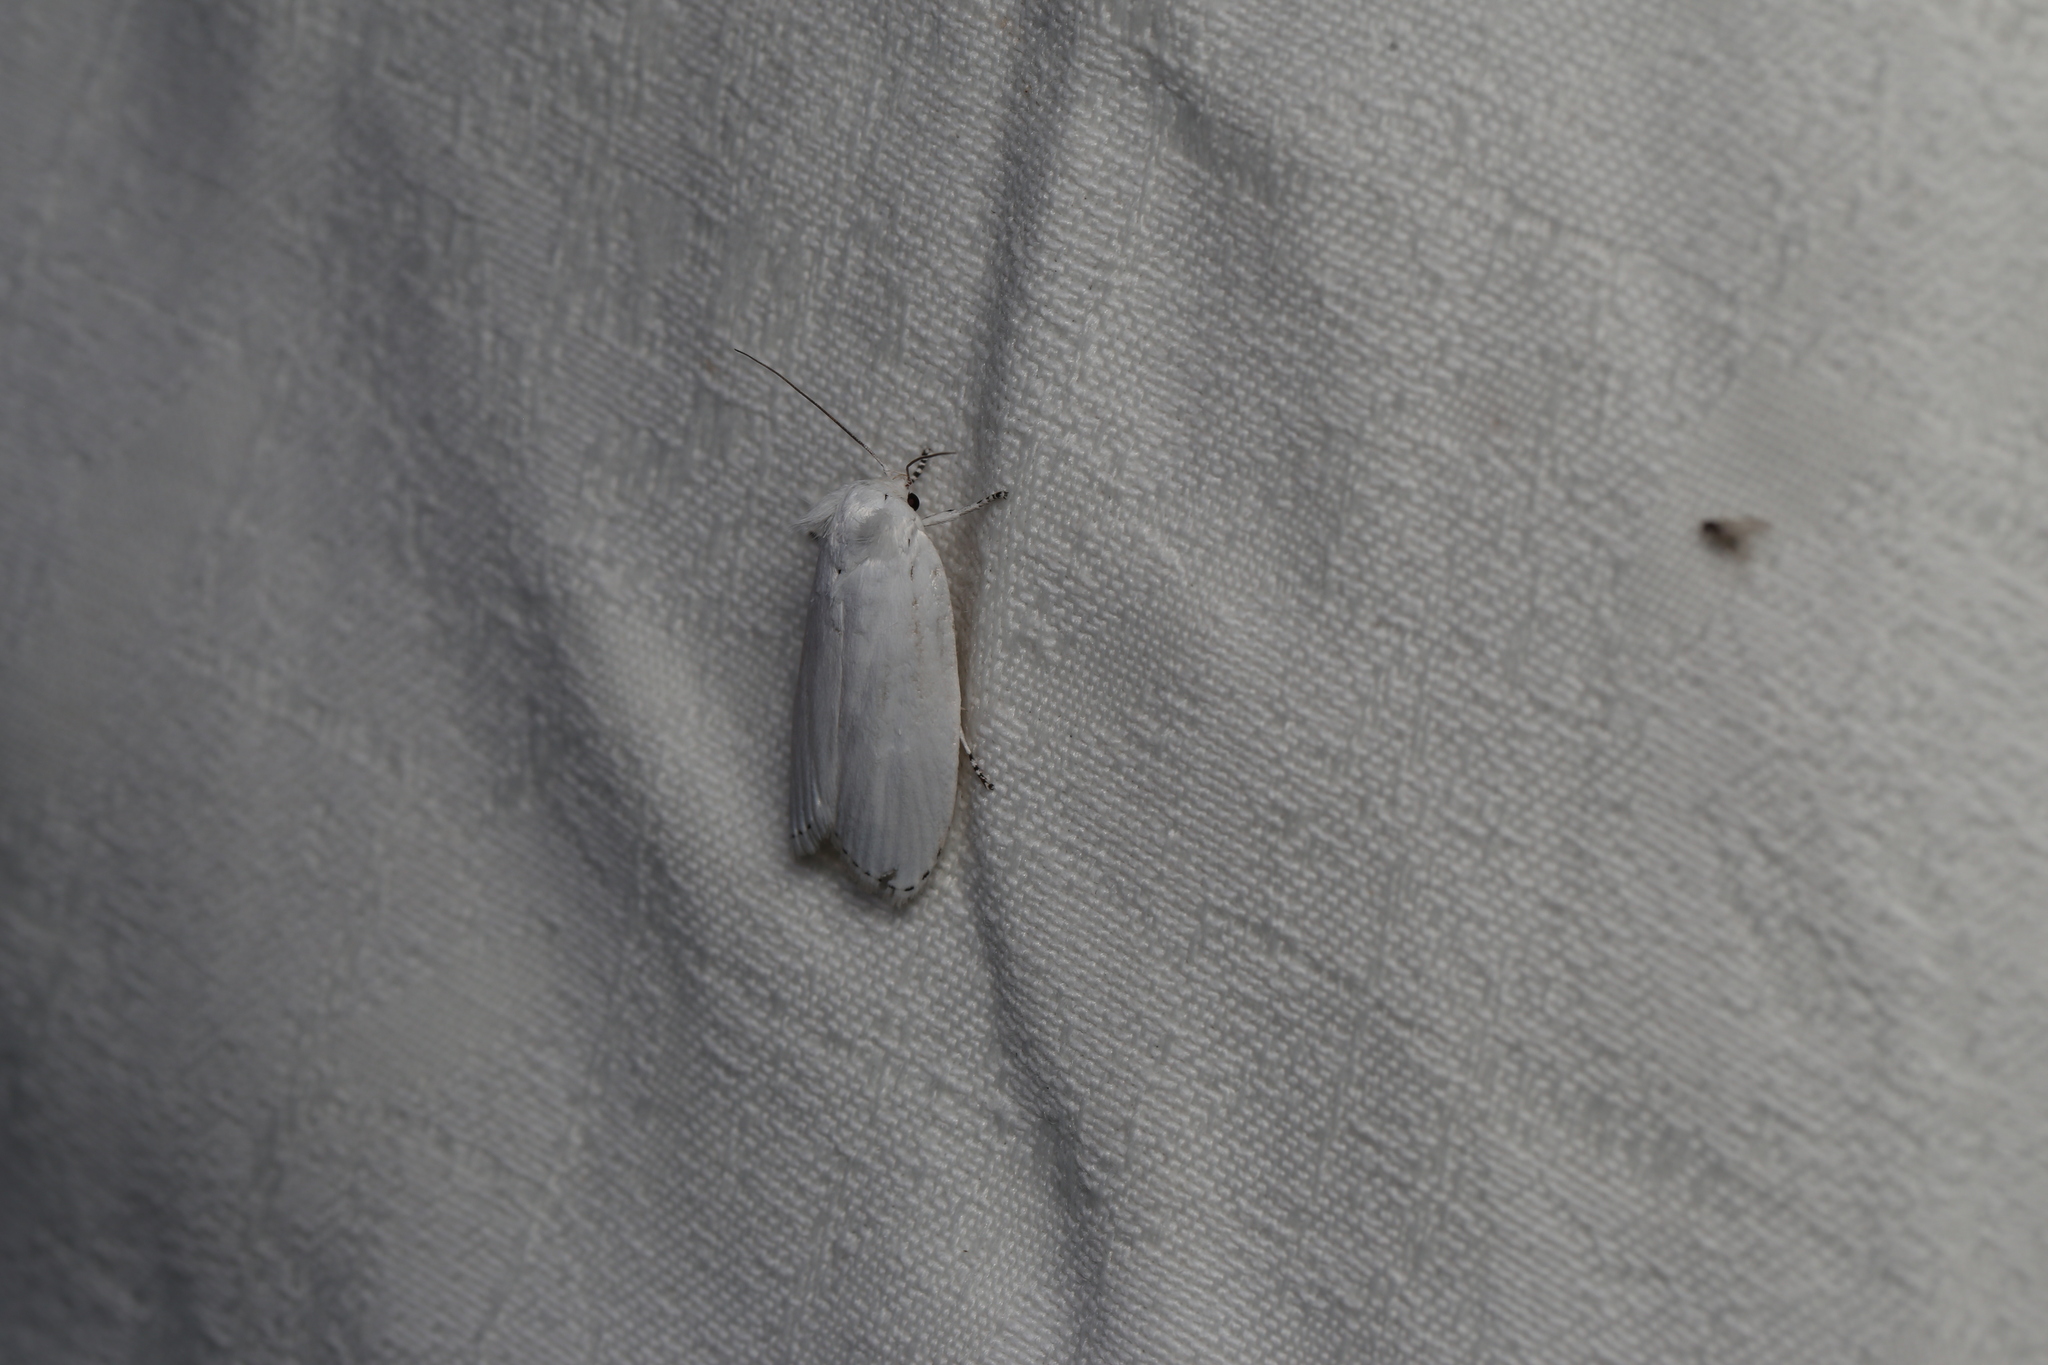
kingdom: Animalia
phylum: Arthropoda
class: Insecta
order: Lepidoptera
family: Xyloryctidae
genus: Cryptophasa
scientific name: Cryptophasa epadelpha
